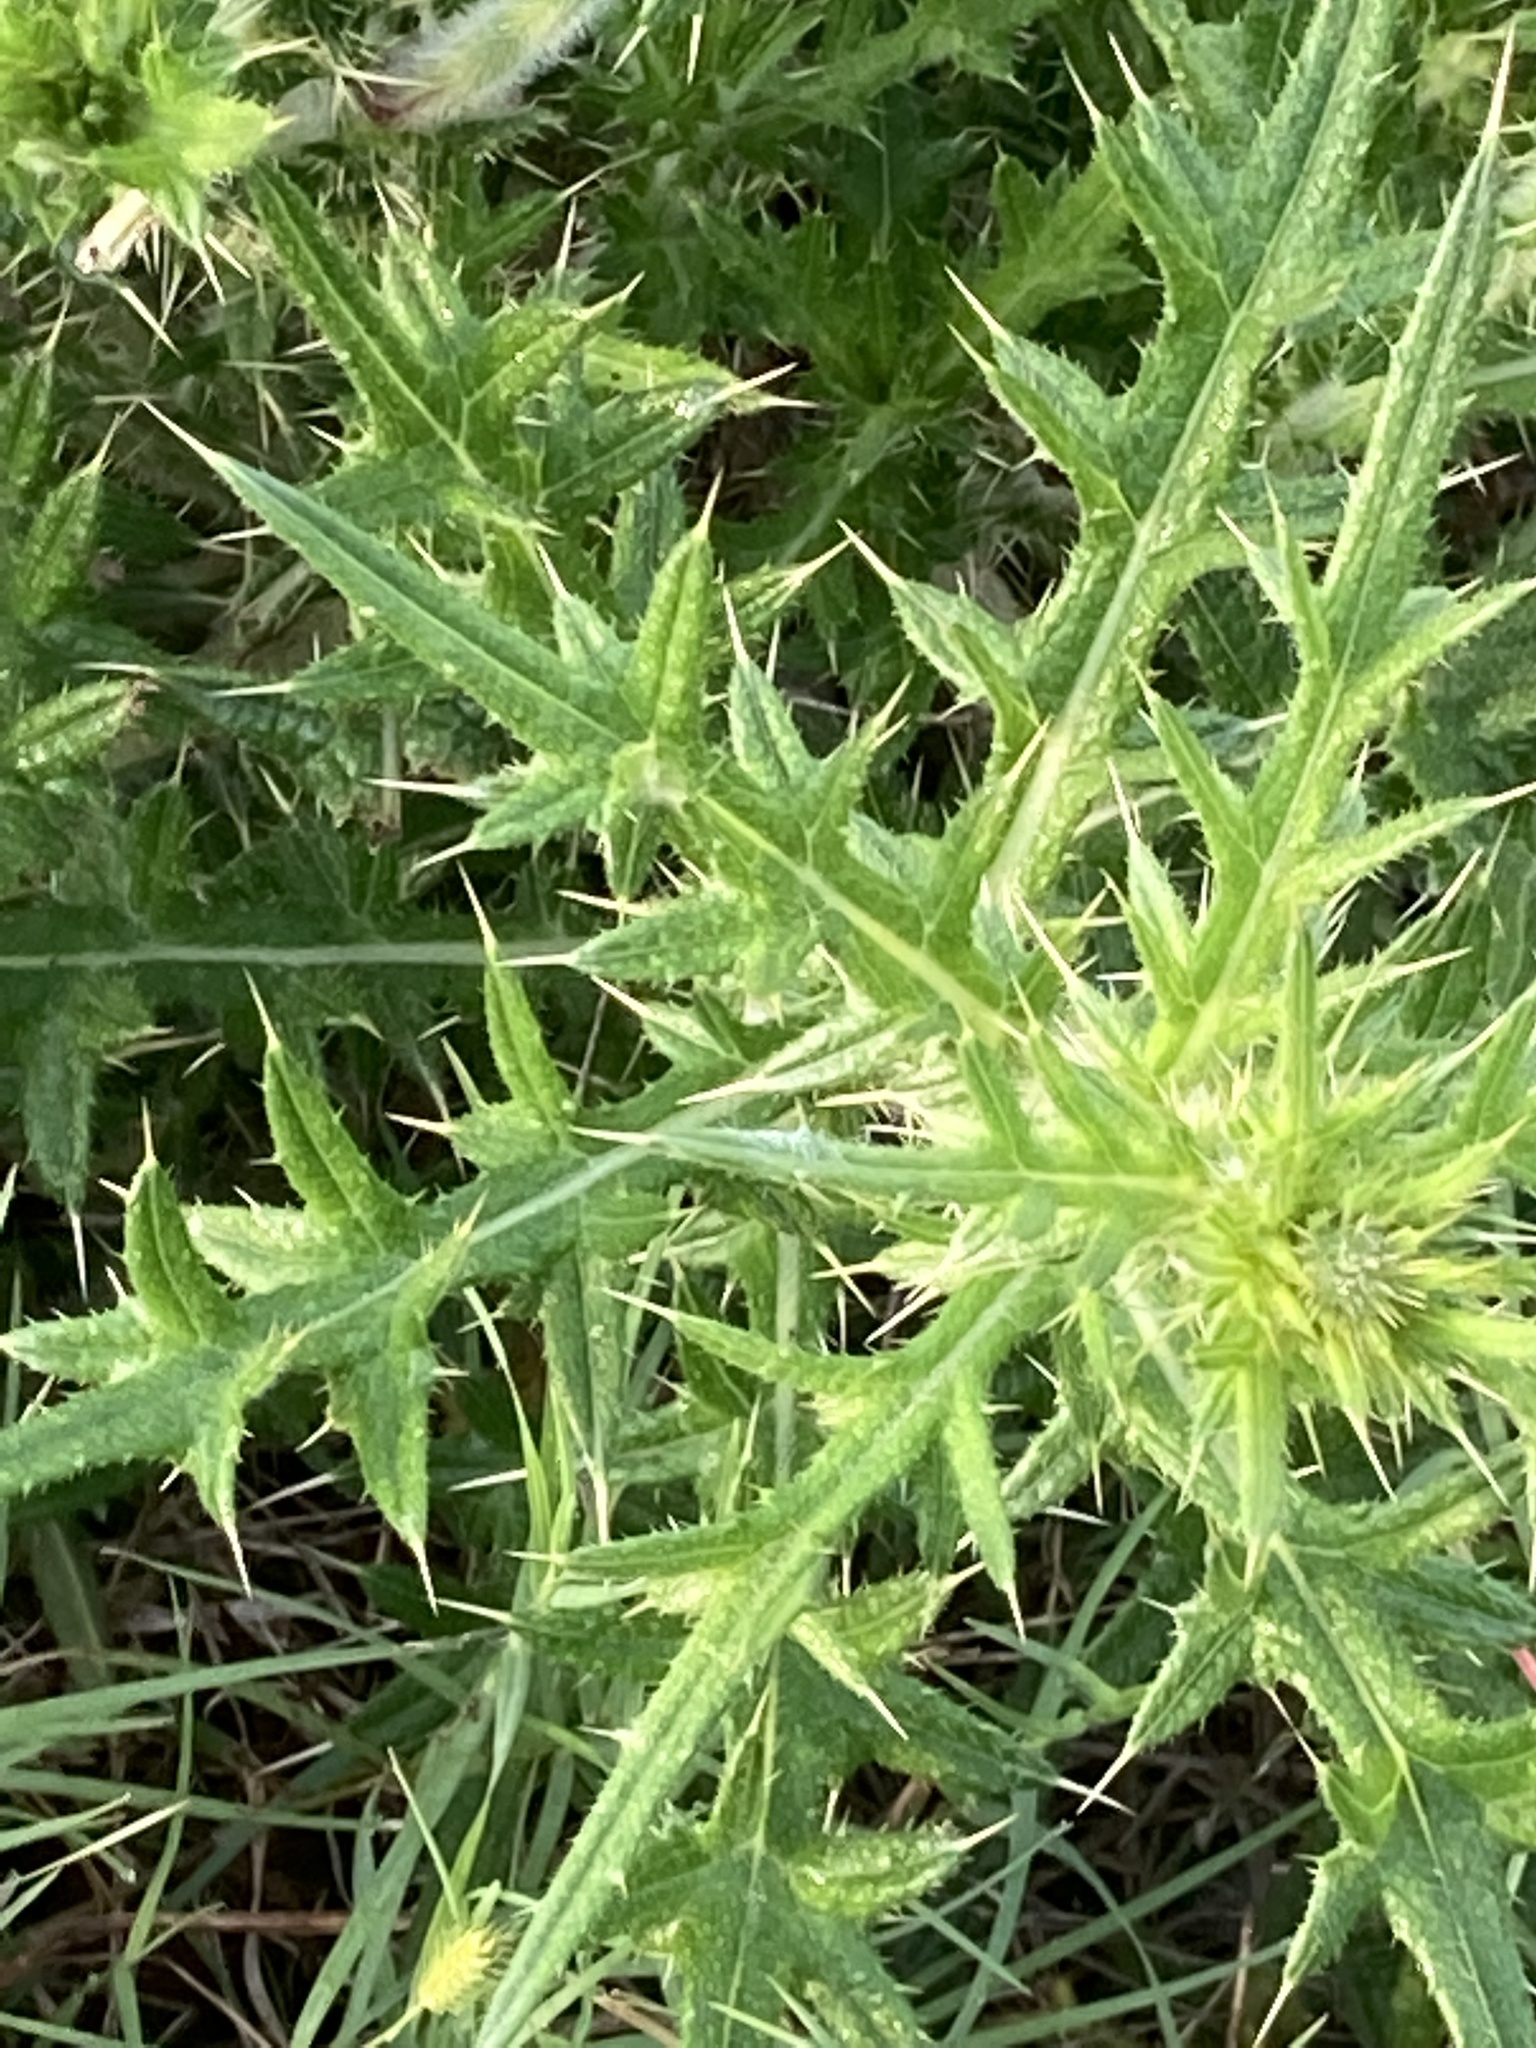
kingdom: Plantae
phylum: Tracheophyta
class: Magnoliopsida
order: Asterales
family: Asteraceae
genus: Cirsium
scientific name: Cirsium vulgare
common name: Bull thistle
